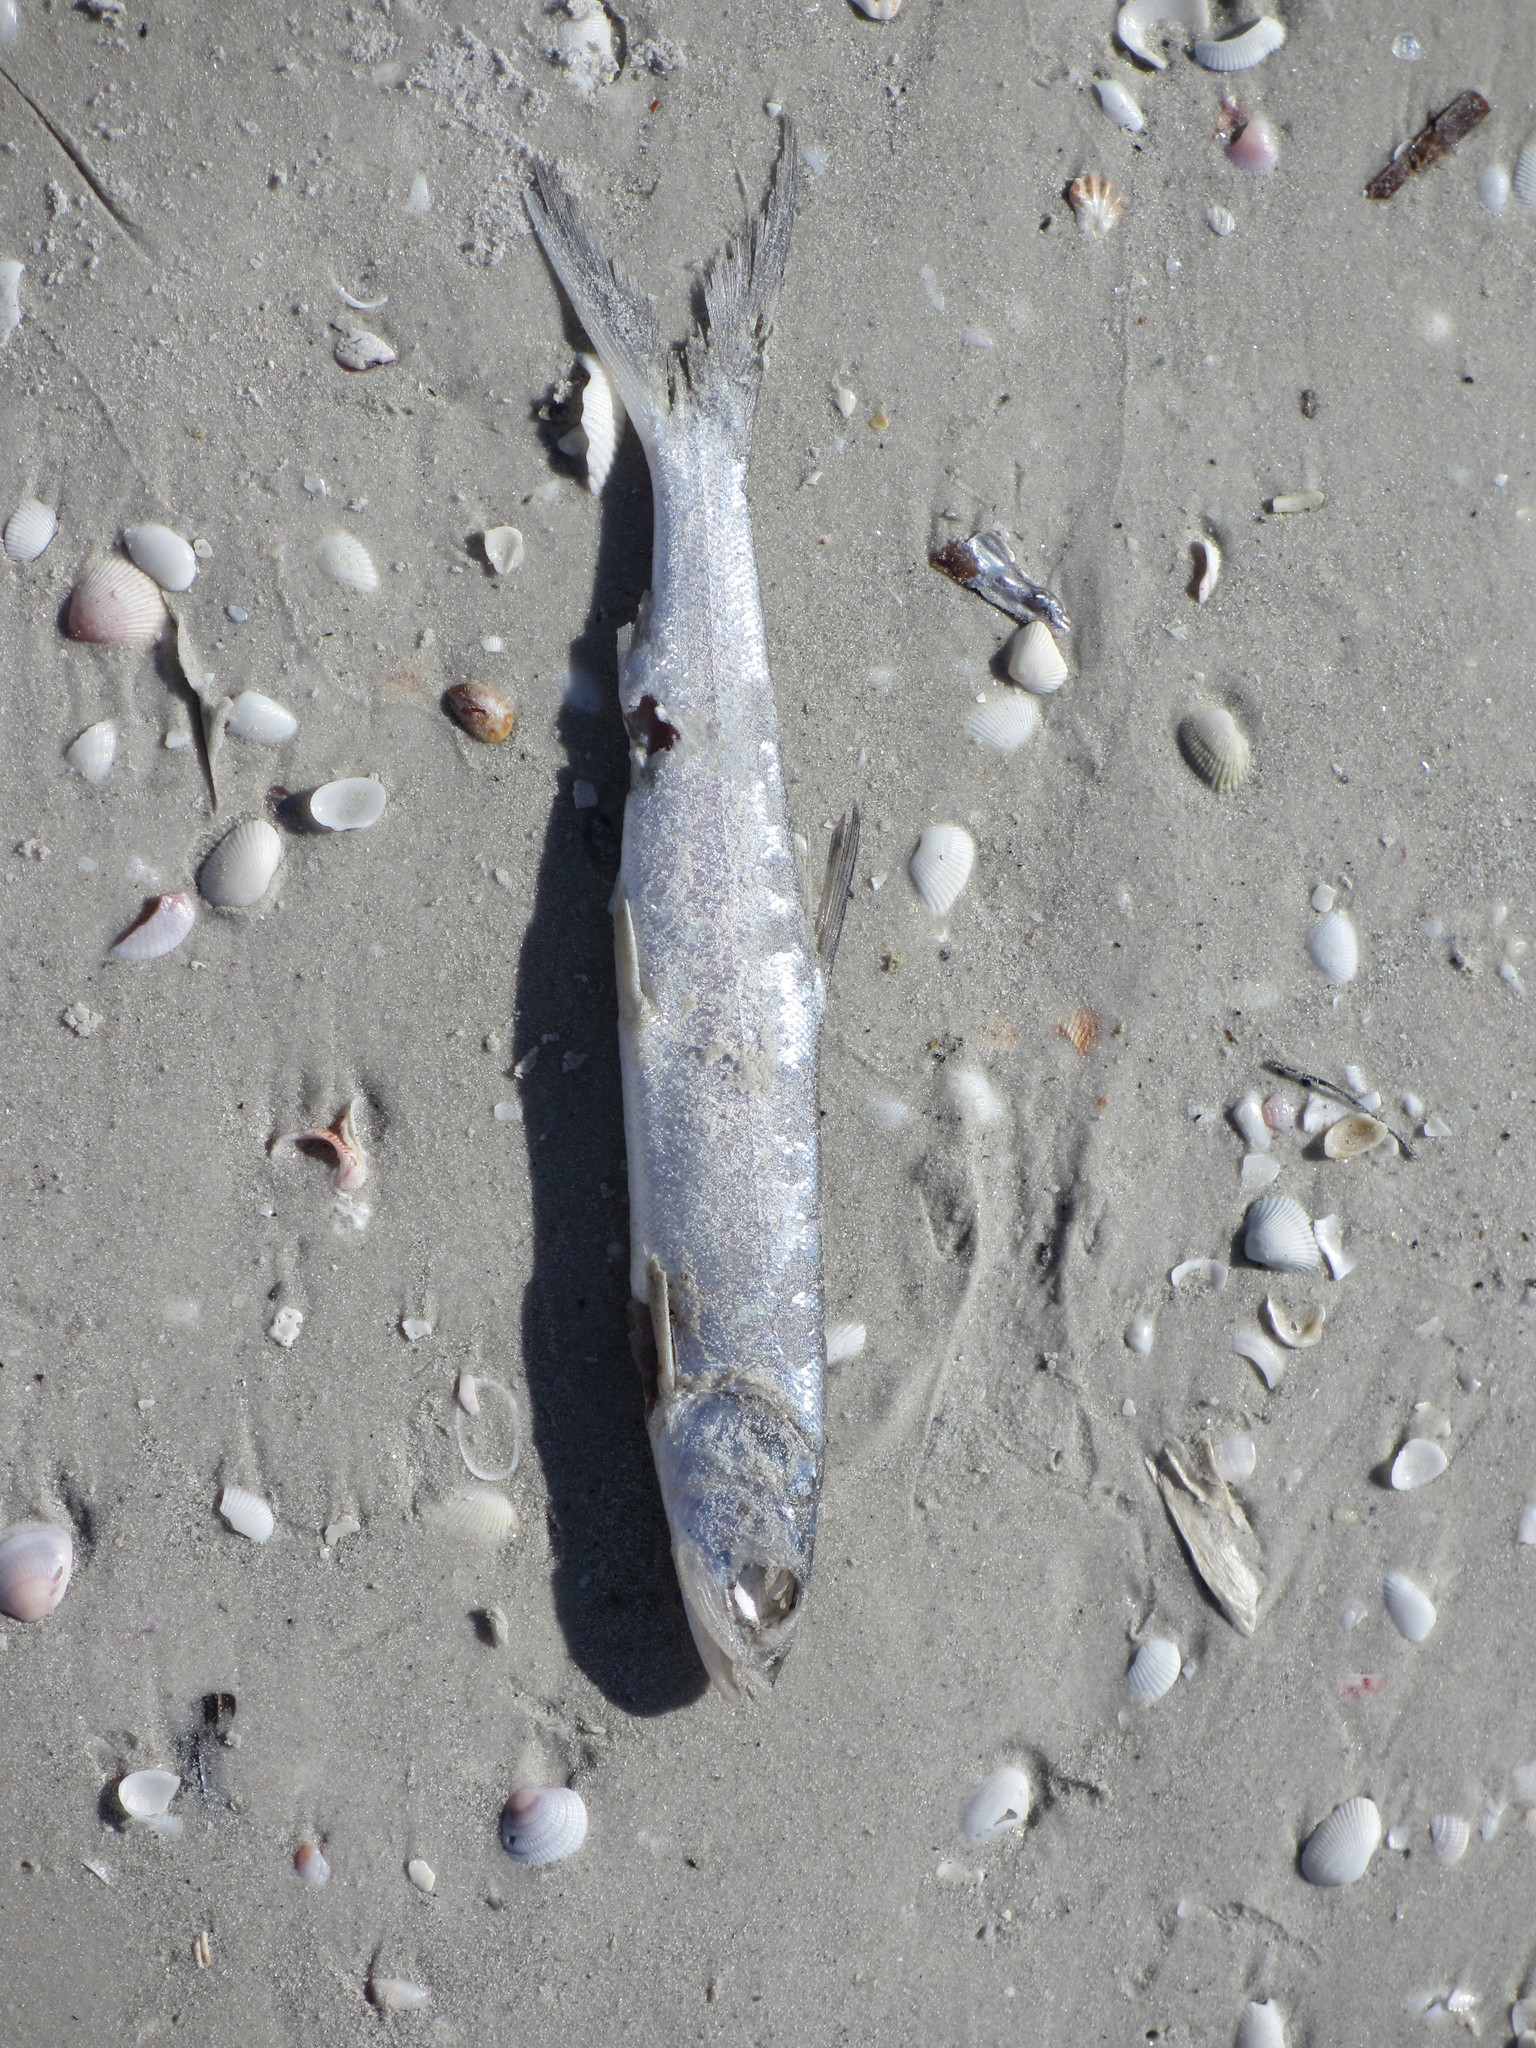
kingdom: Animalia
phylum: Chordata
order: Elopiformes
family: Elopidae
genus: Elops
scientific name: Elops saurus
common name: Ladyfish
